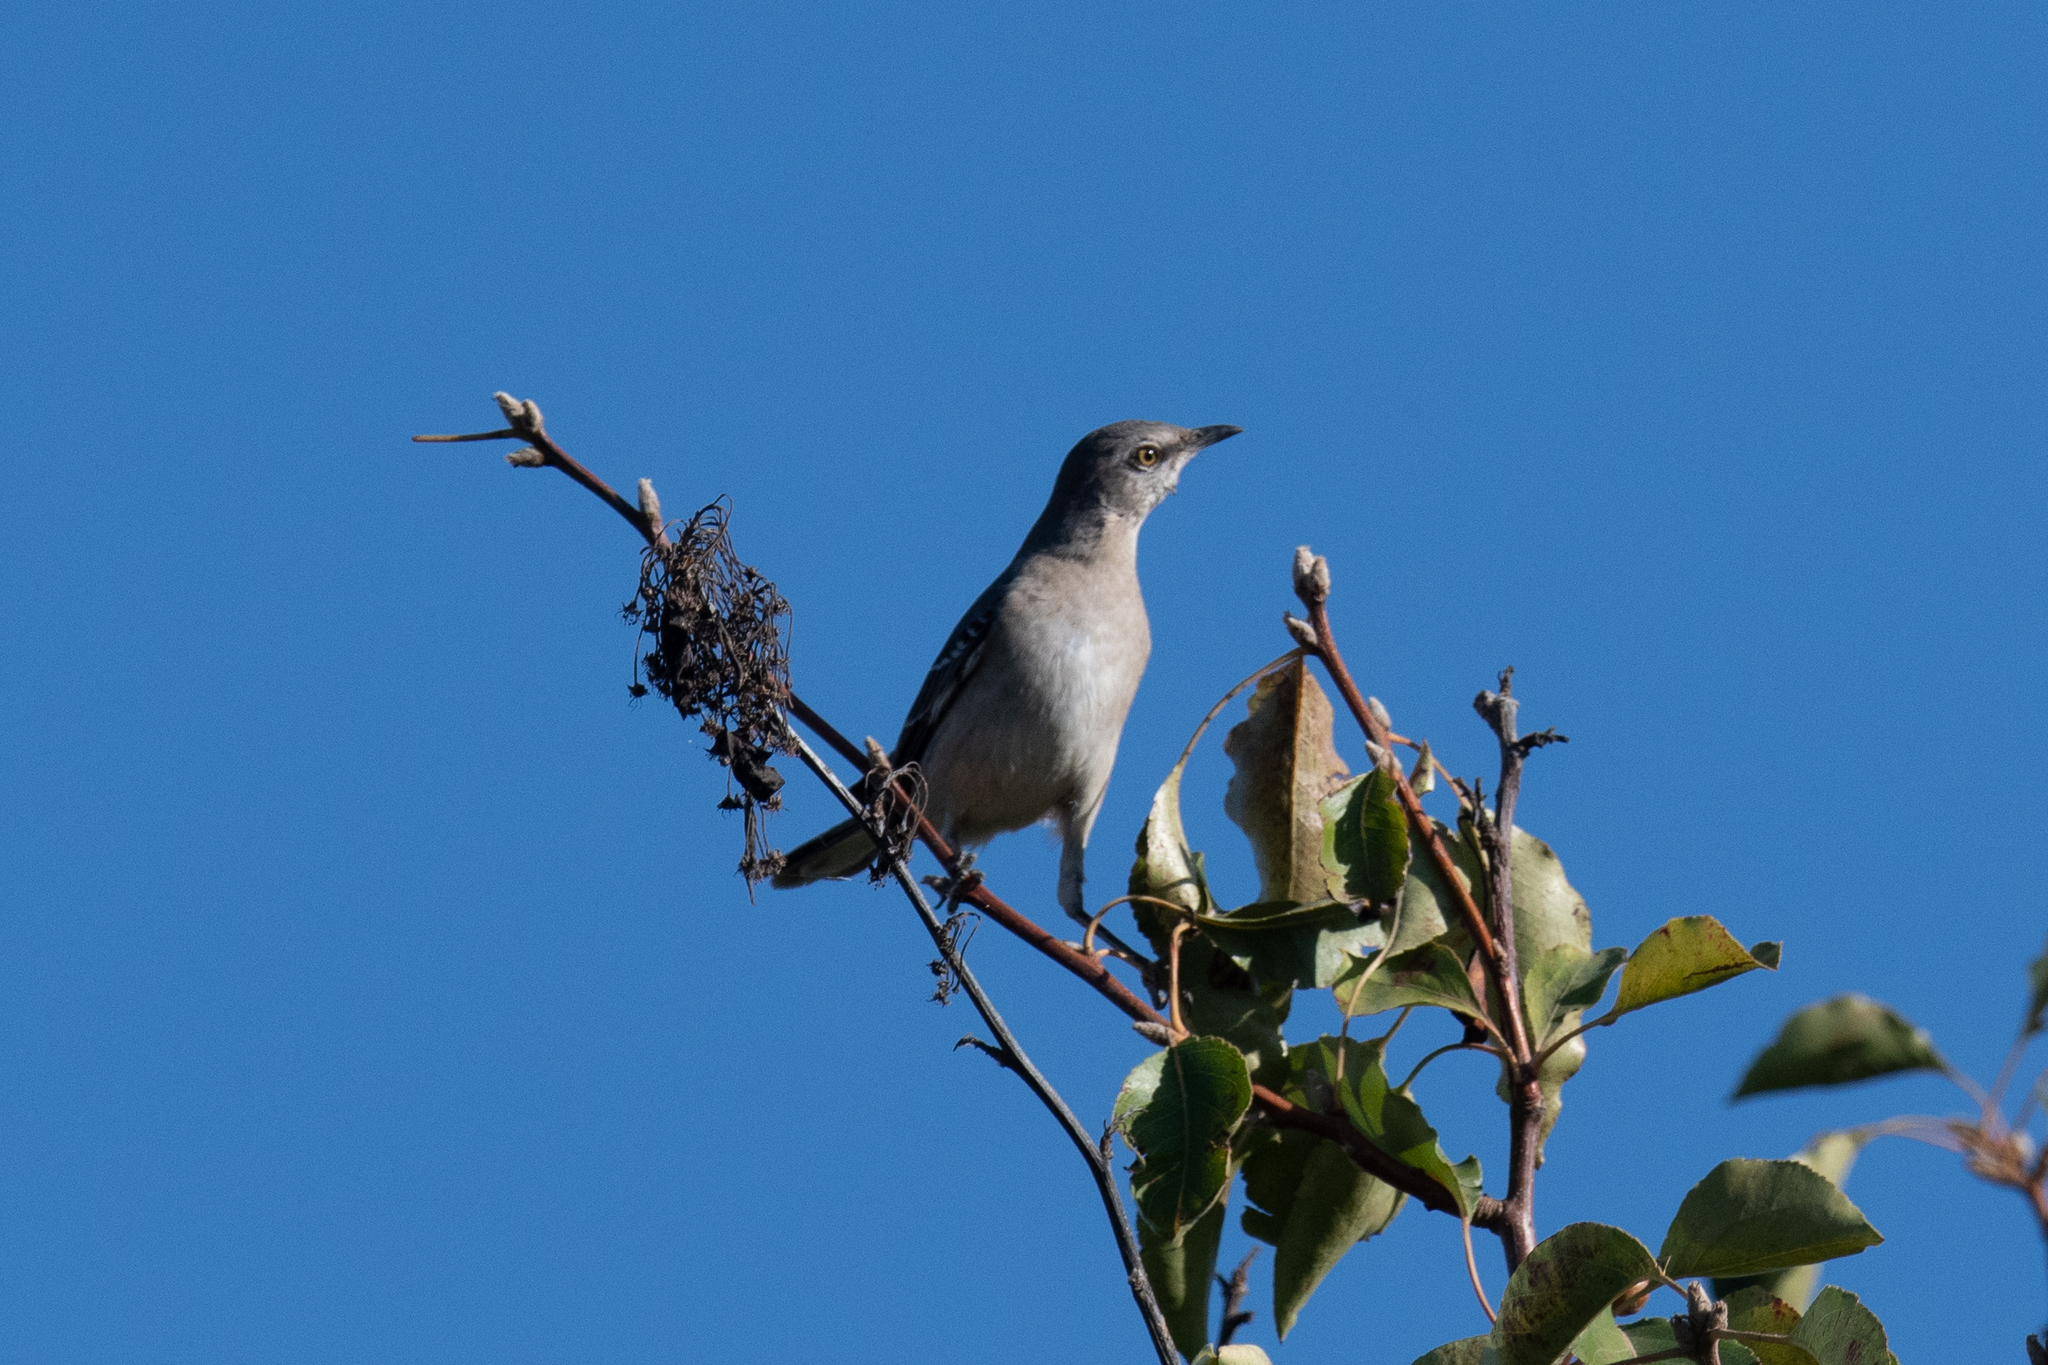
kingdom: Animalia
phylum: Chordata
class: Aves
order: Passeriformes
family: Mimidae
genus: Mimus
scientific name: Mimus polyglottos
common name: Northern mockingbird
